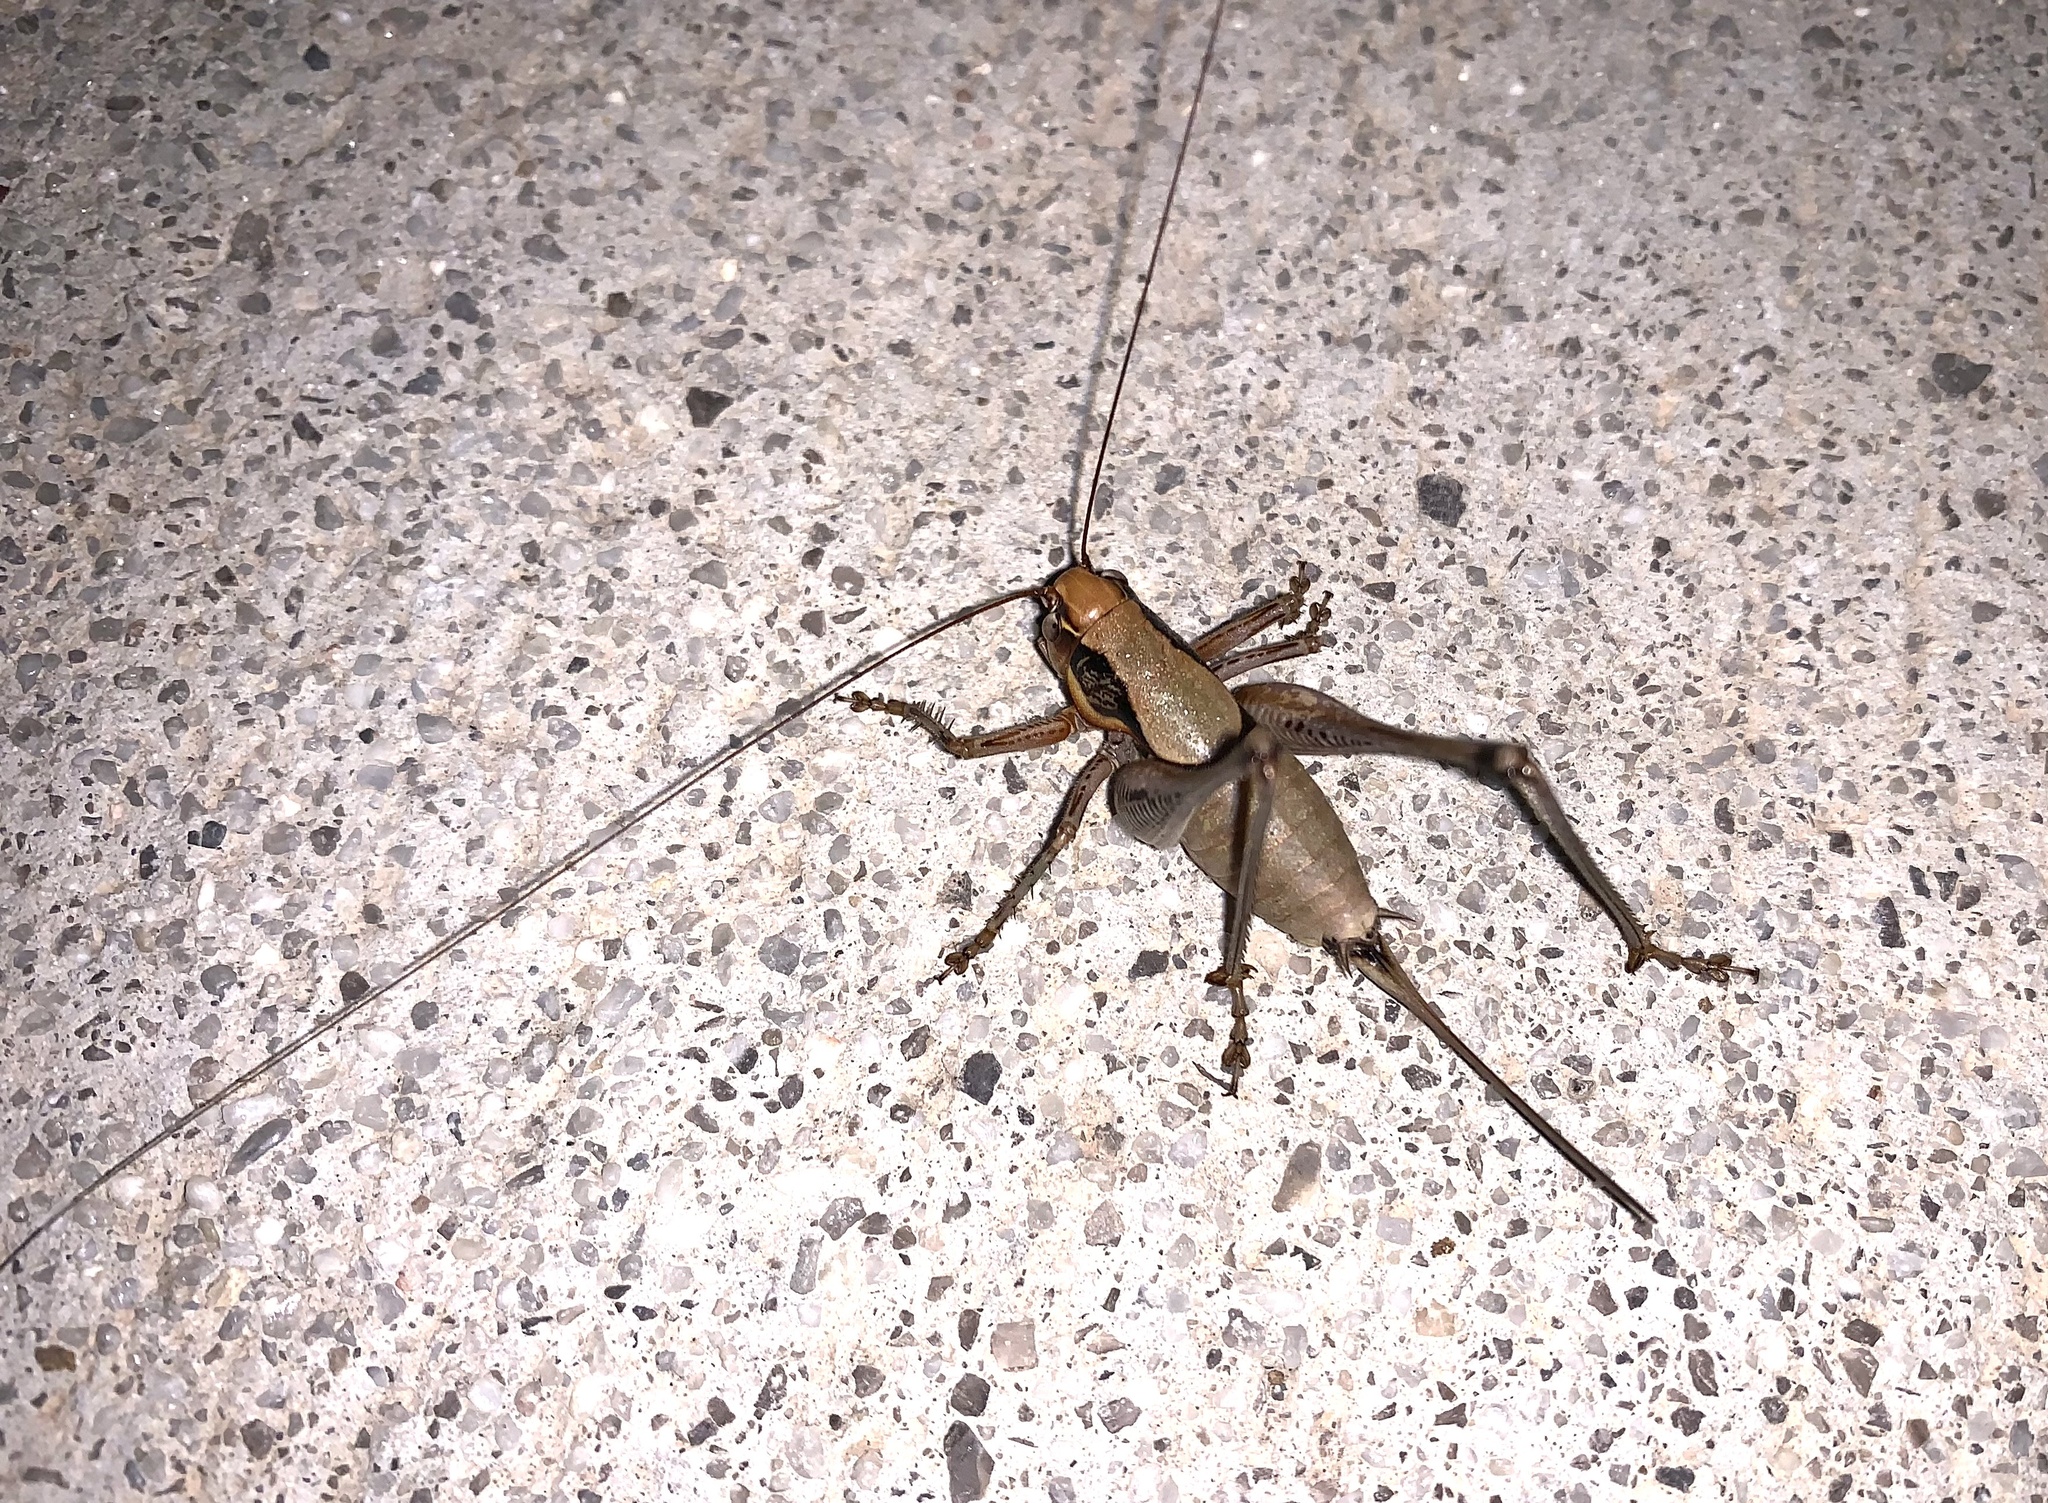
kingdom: Animalia
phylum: Arthropoda
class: Insecta
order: Orthoptera
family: Tettigoniidae
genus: Eupholidoptera
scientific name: Eupholidoptera megastyla
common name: Greek marbled bush-cricket
